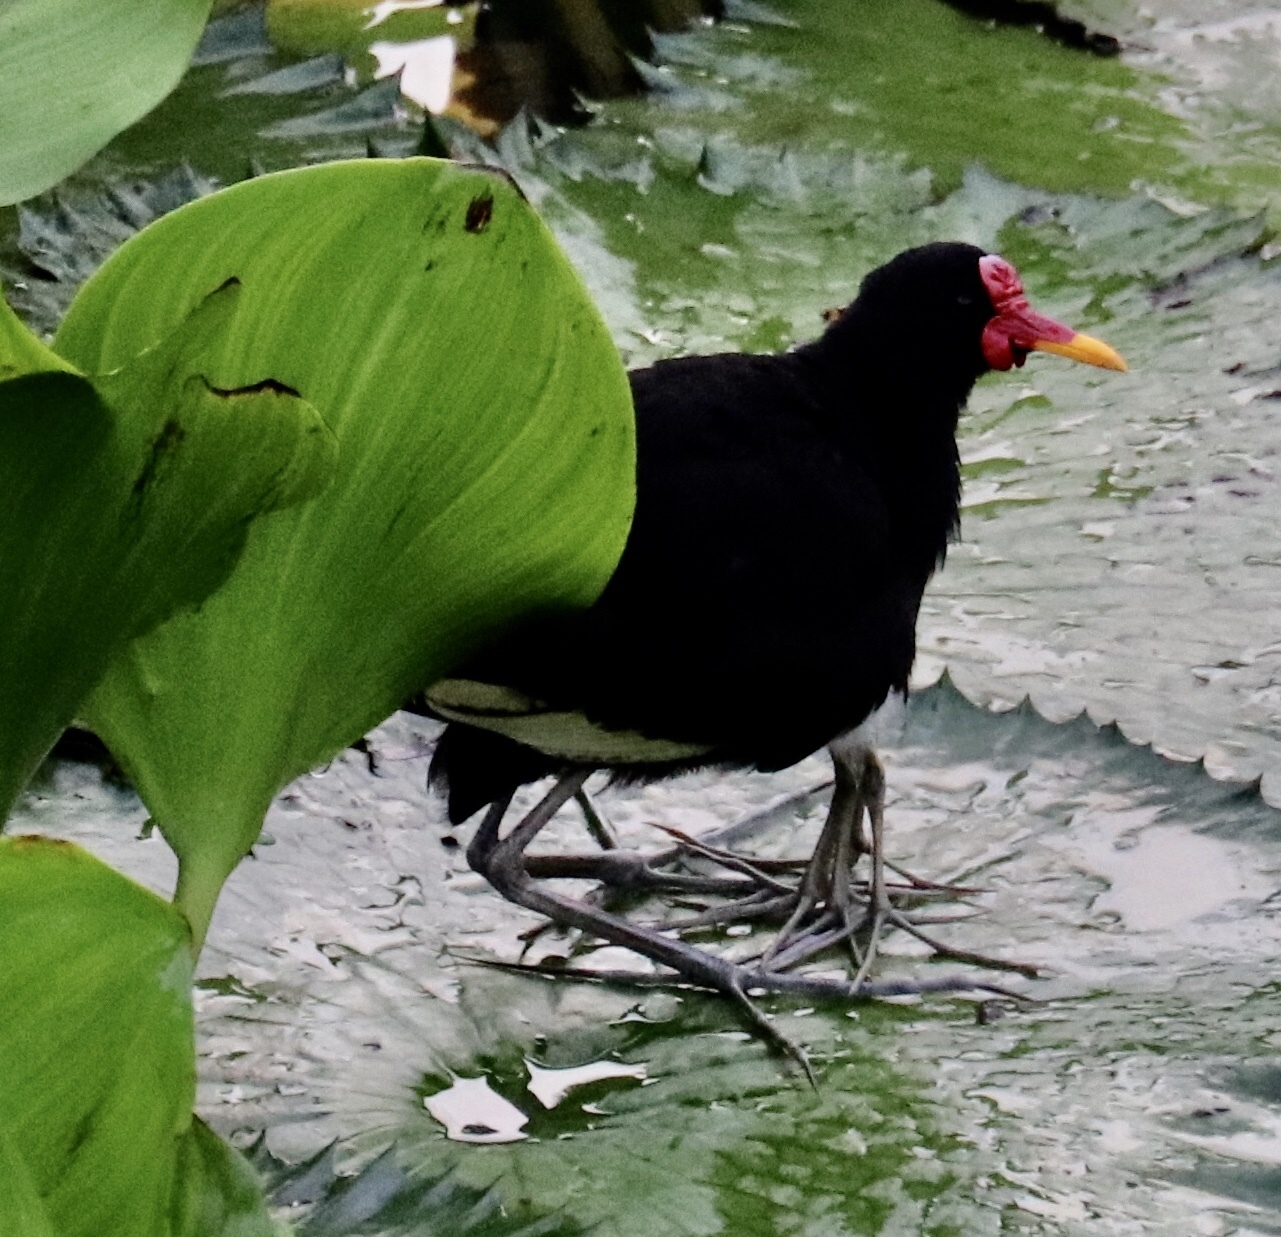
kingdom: Animalia
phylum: Chordata
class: Aves
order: Charadriiformes
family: Jacanidae
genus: Jacana
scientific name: Jacana jacana
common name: Wattled jacana
